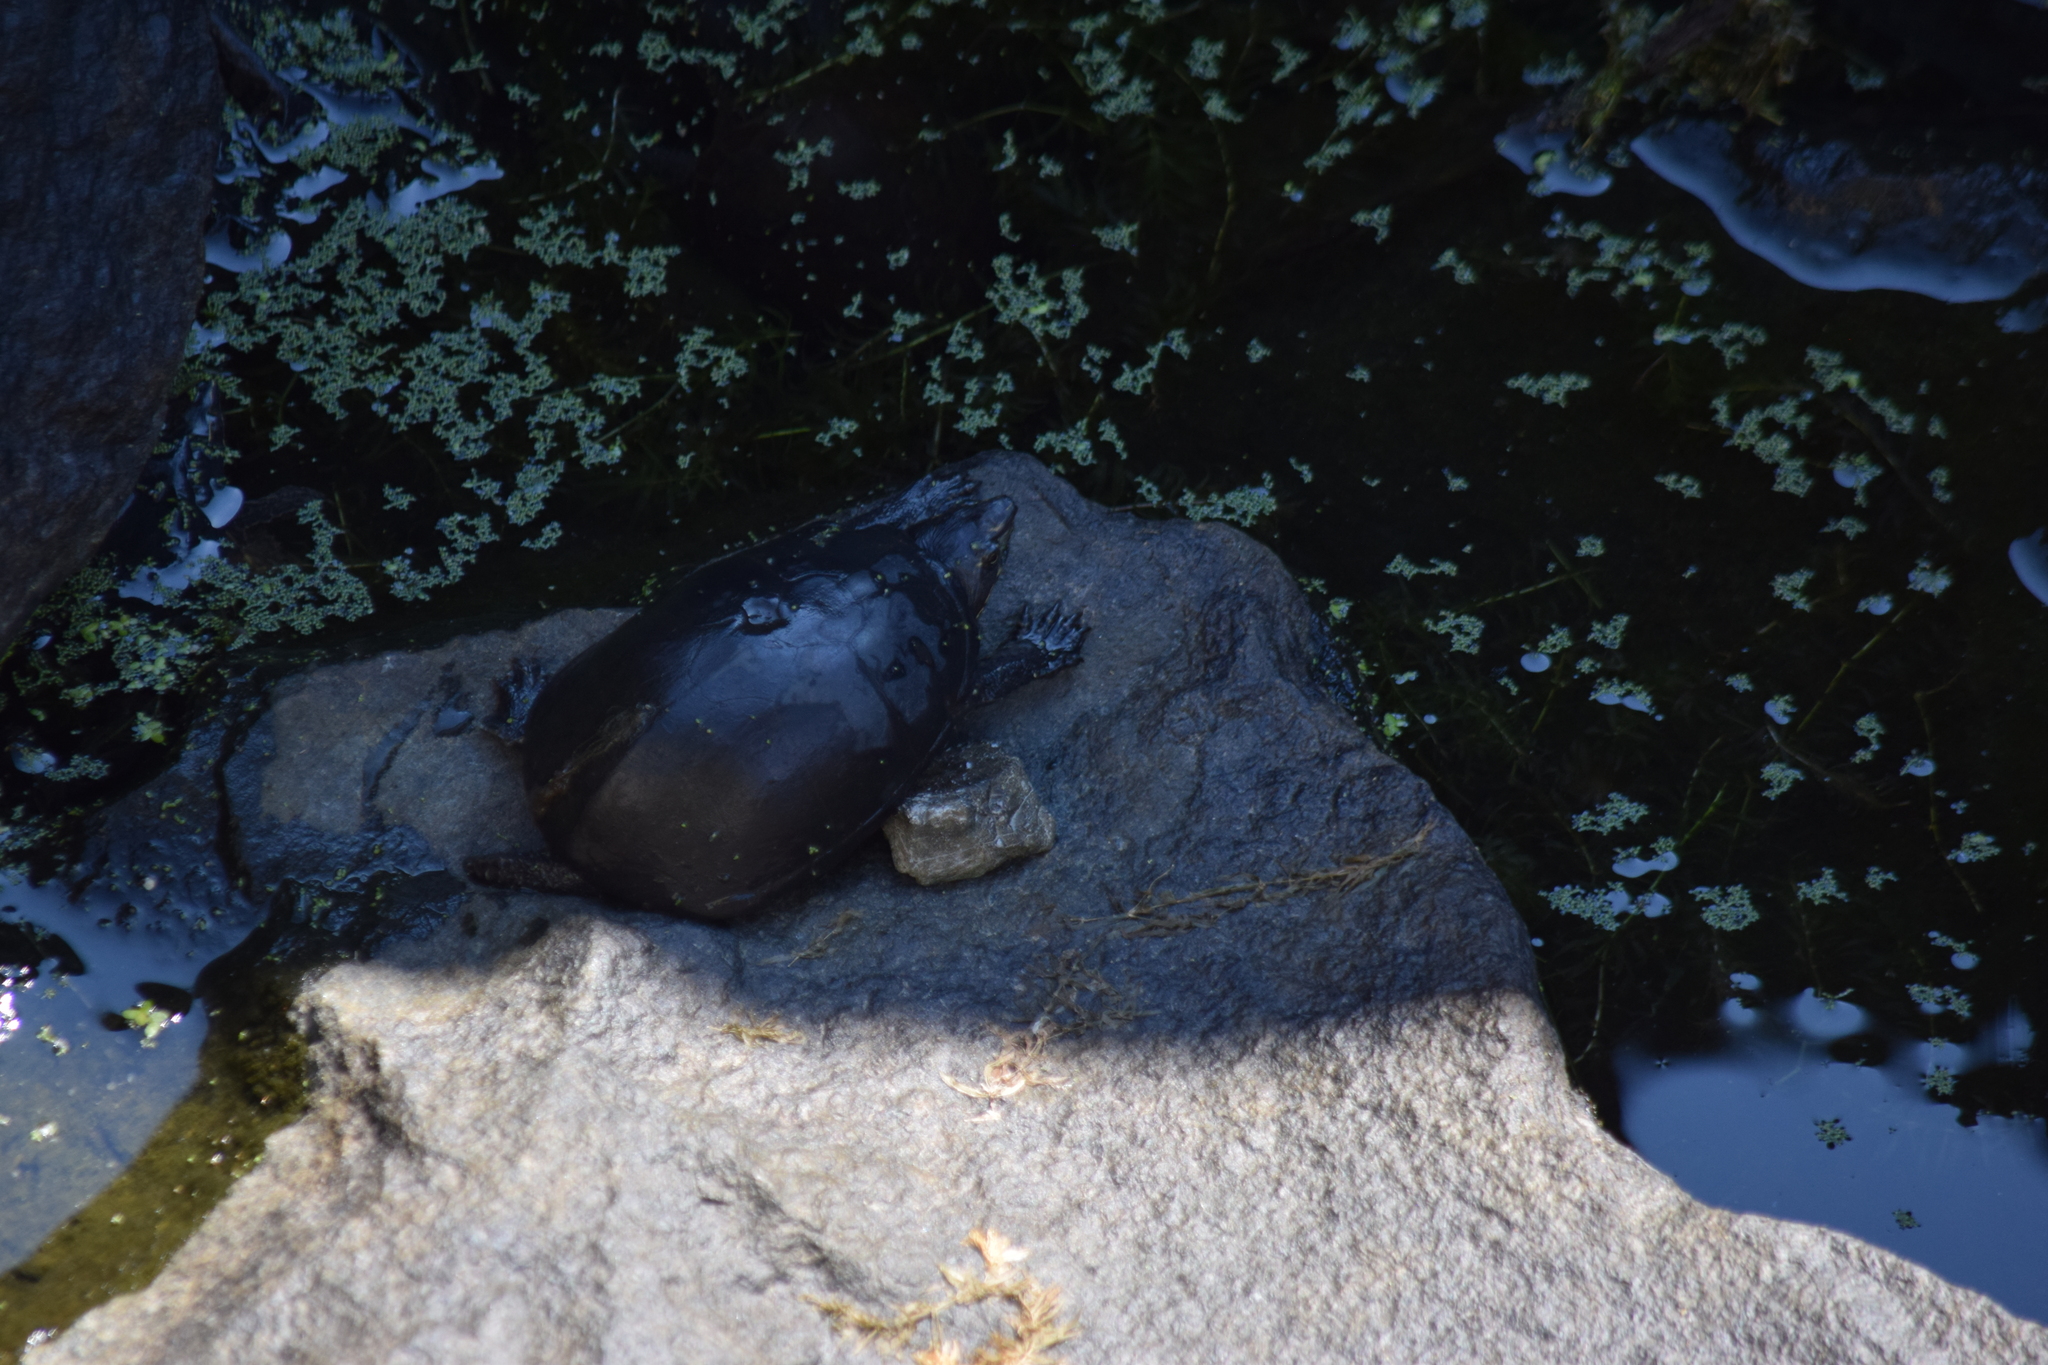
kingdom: Animalia
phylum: Chordata
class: Testudines
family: Kinosternidae
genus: Sternotherus
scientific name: Sternotherus odoratus
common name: Common musk turtle
